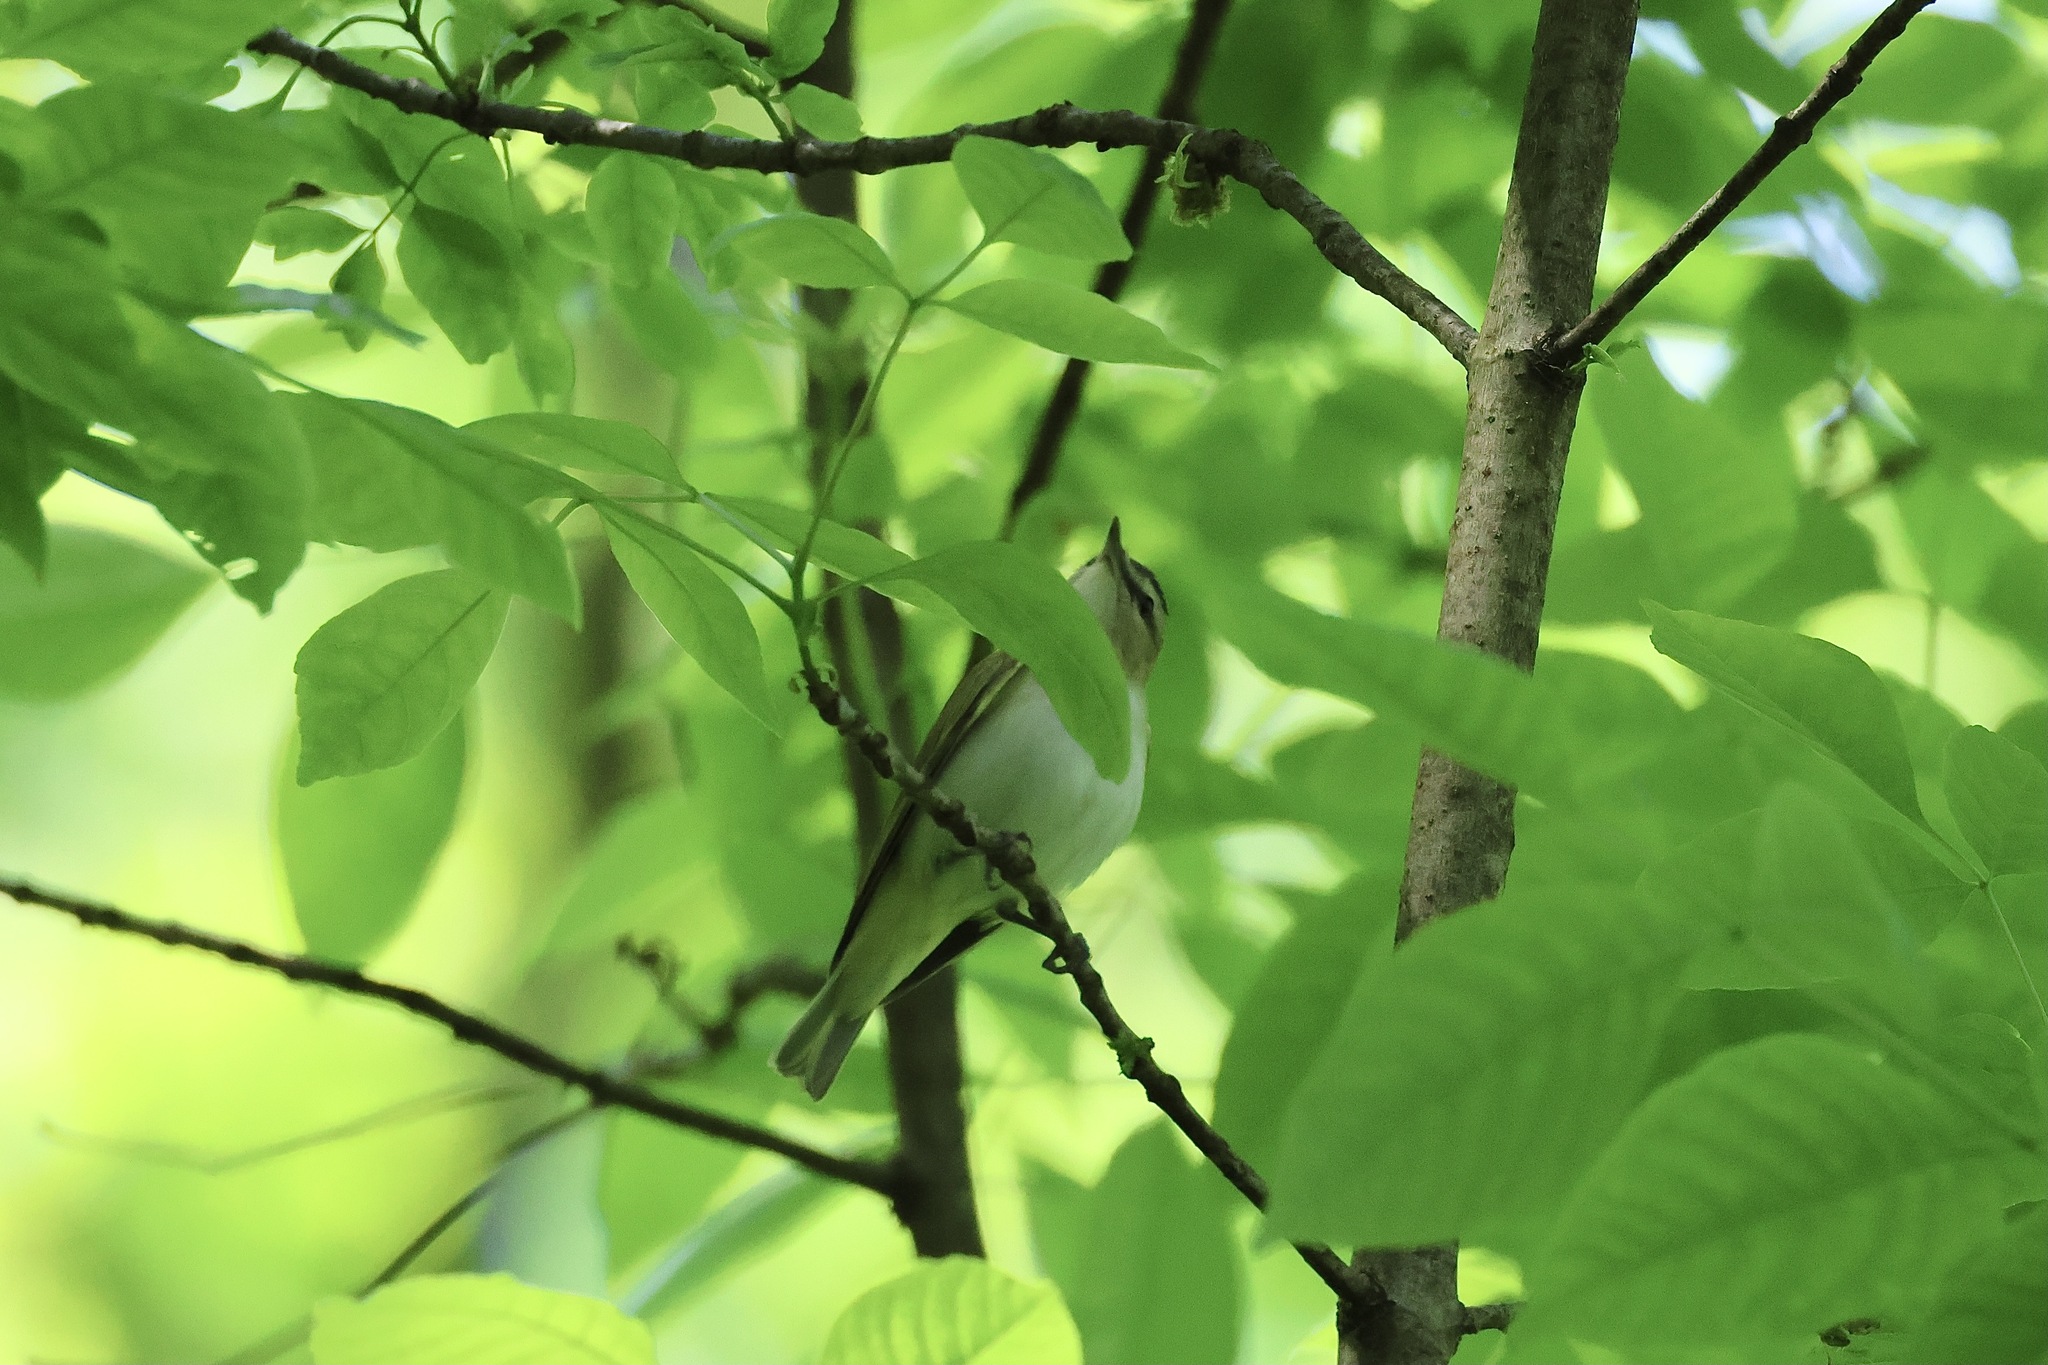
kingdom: Animalia
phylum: Chordata
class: Aves
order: Passeriformes
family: Vireonidae
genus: Vireo
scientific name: Vireo olivaceus
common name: Red-eyed vireo
